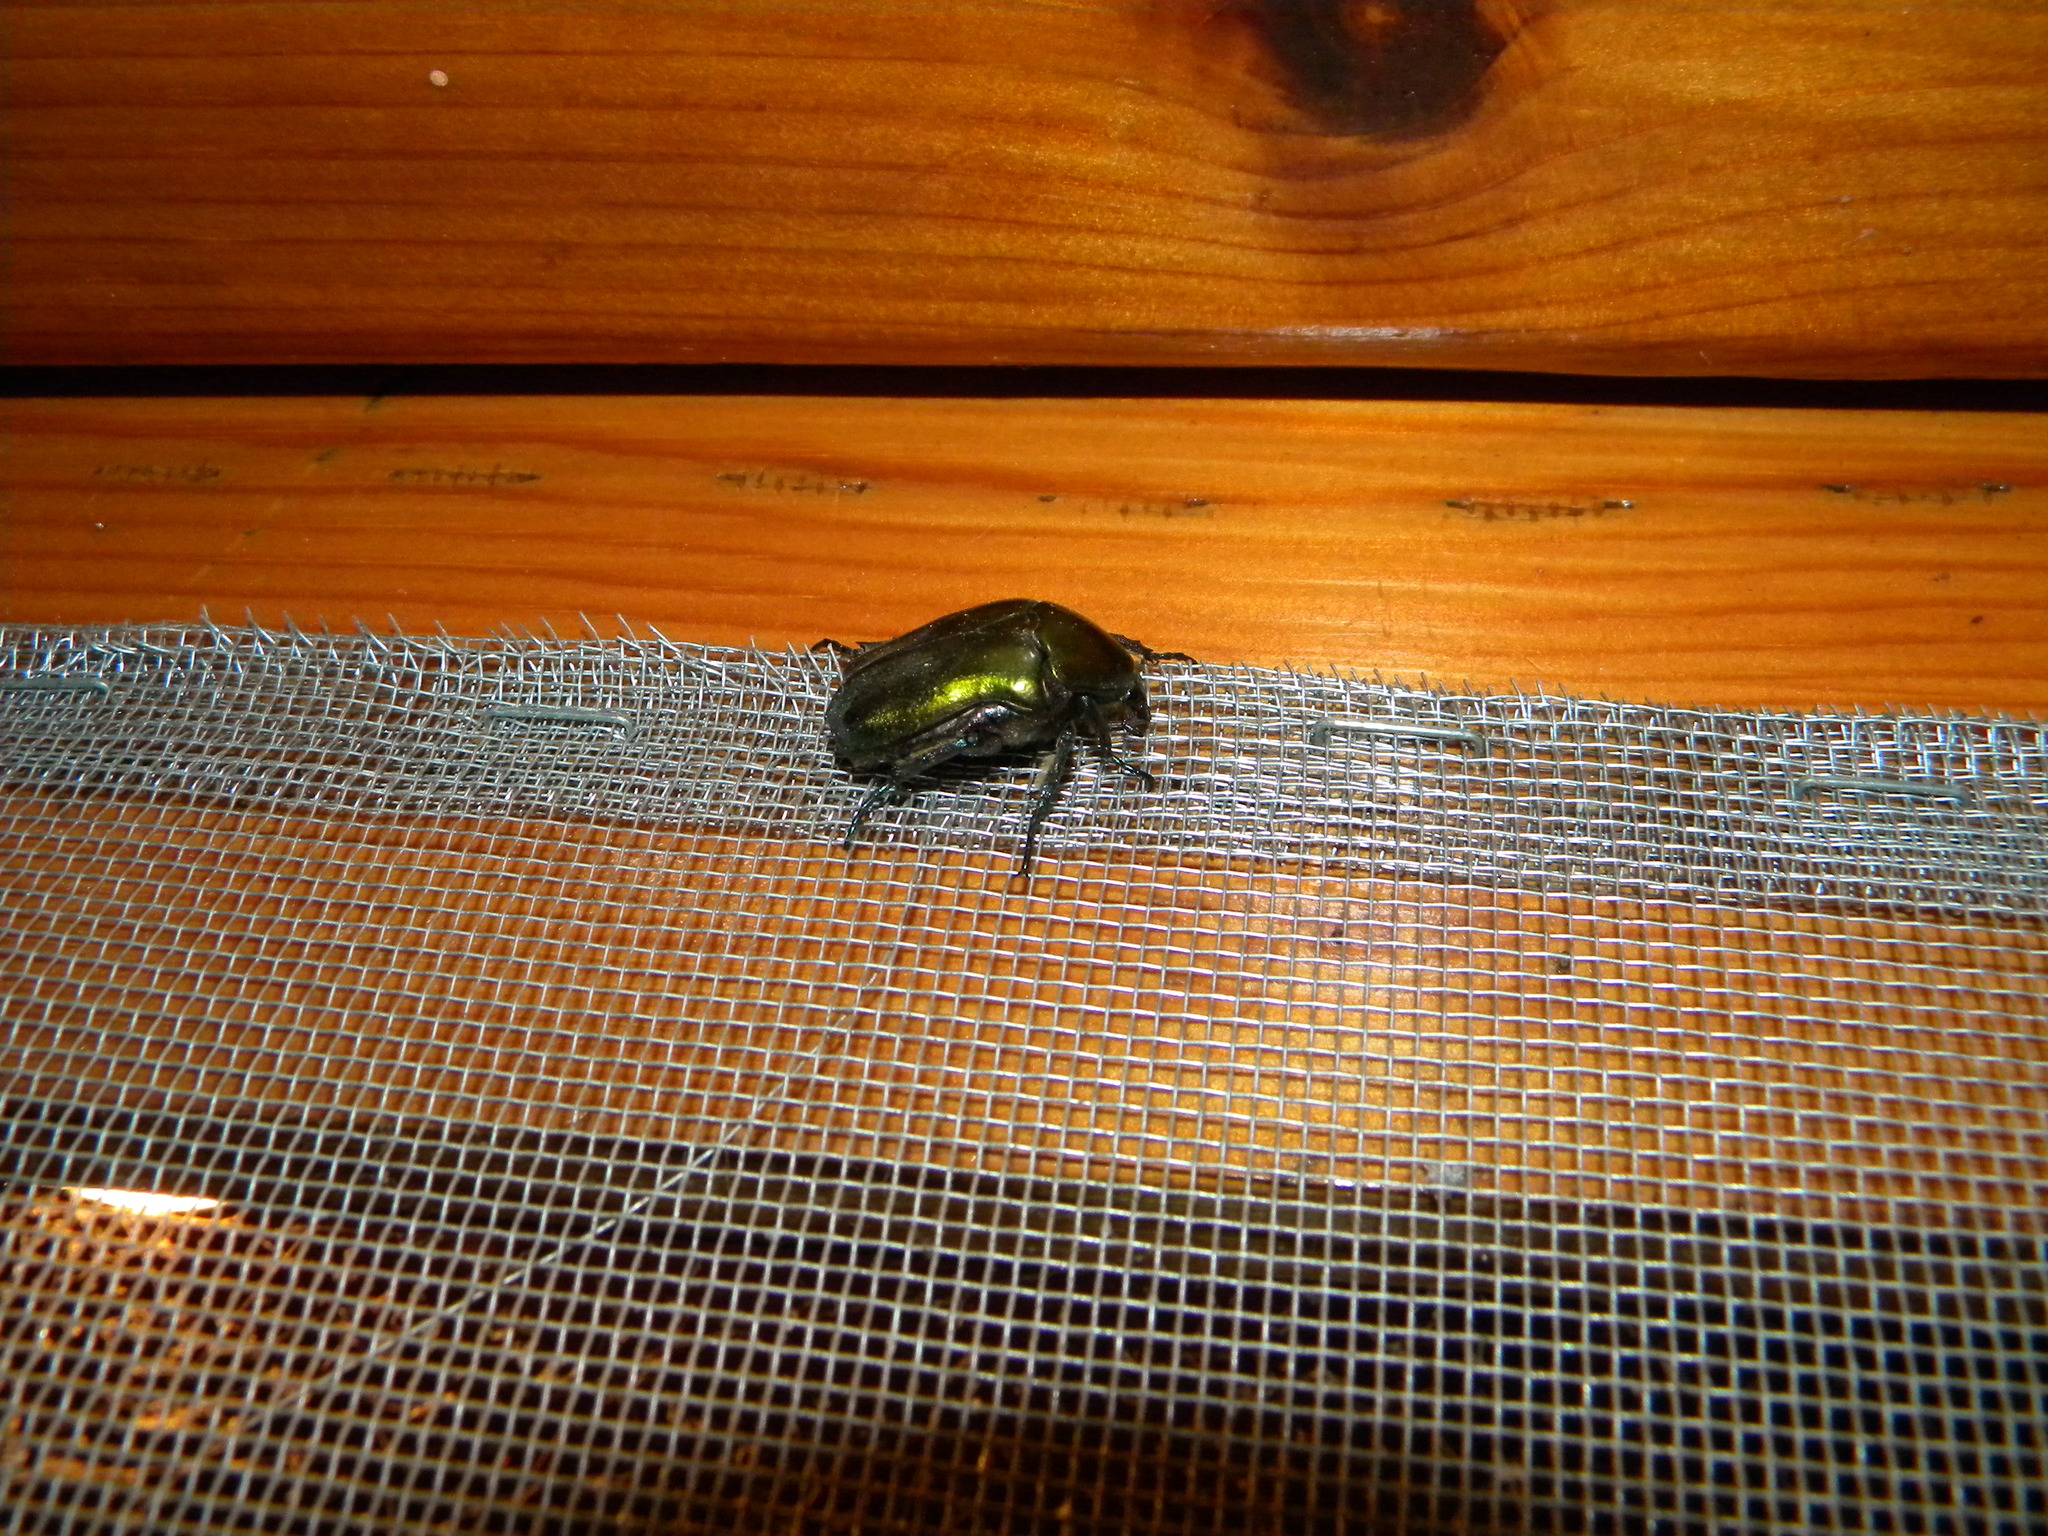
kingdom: Animalia
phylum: Arthropoda
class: Insecta
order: Coleoptera
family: Scarabaeidae
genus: Cetonia
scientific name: Cetonia aurata
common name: Rose chafer
